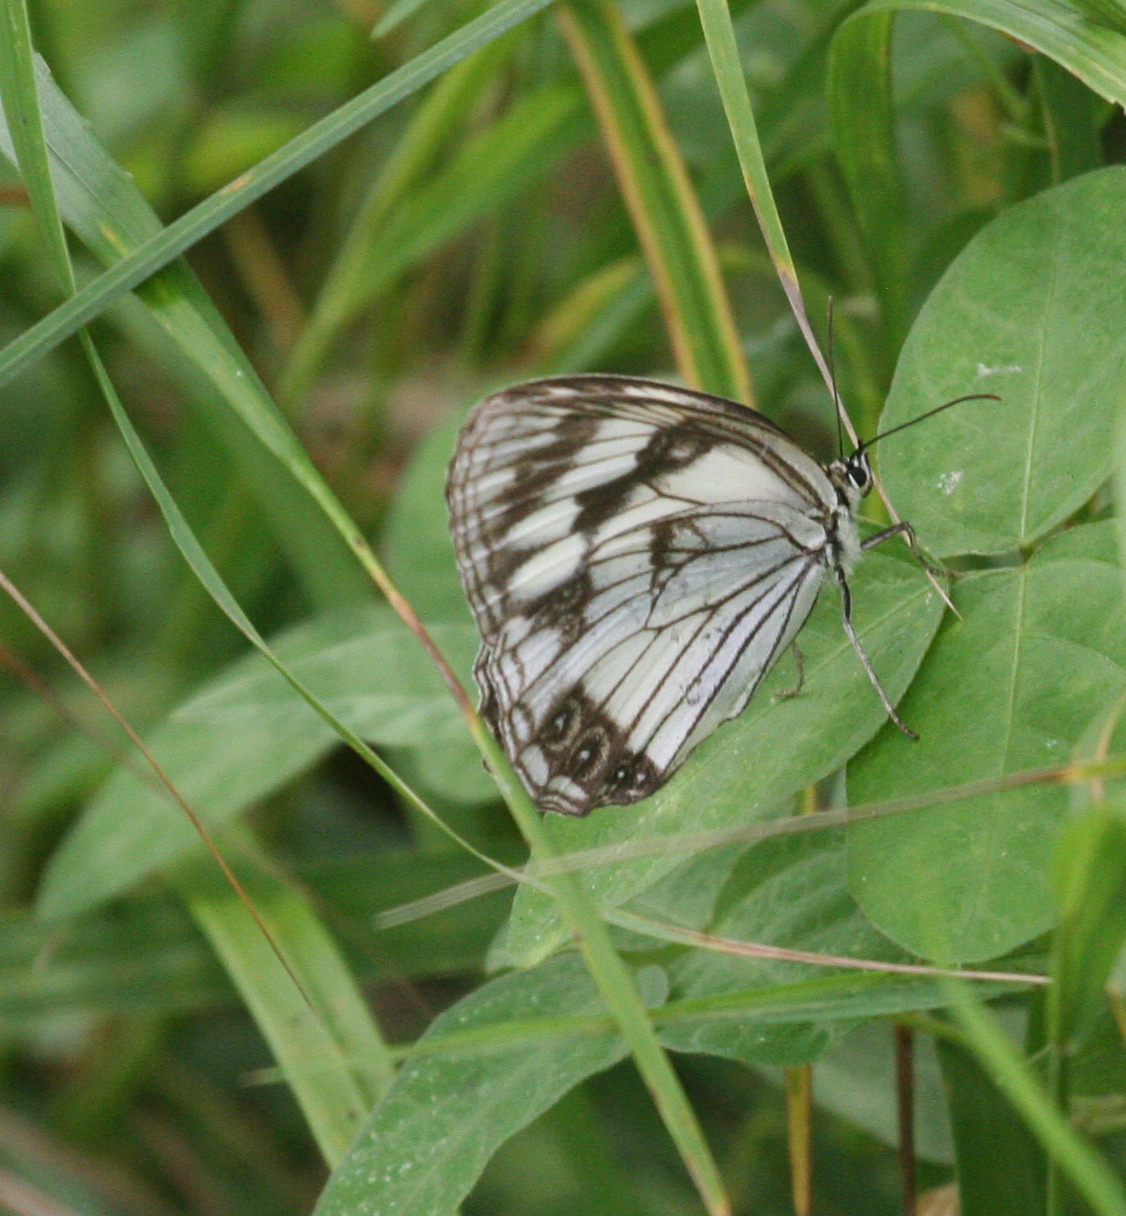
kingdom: Animalia
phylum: Arthropoda
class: Insecta
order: Lepidoptera
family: Nymphalidae
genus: Melanargia
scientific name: Melanargia halimede
